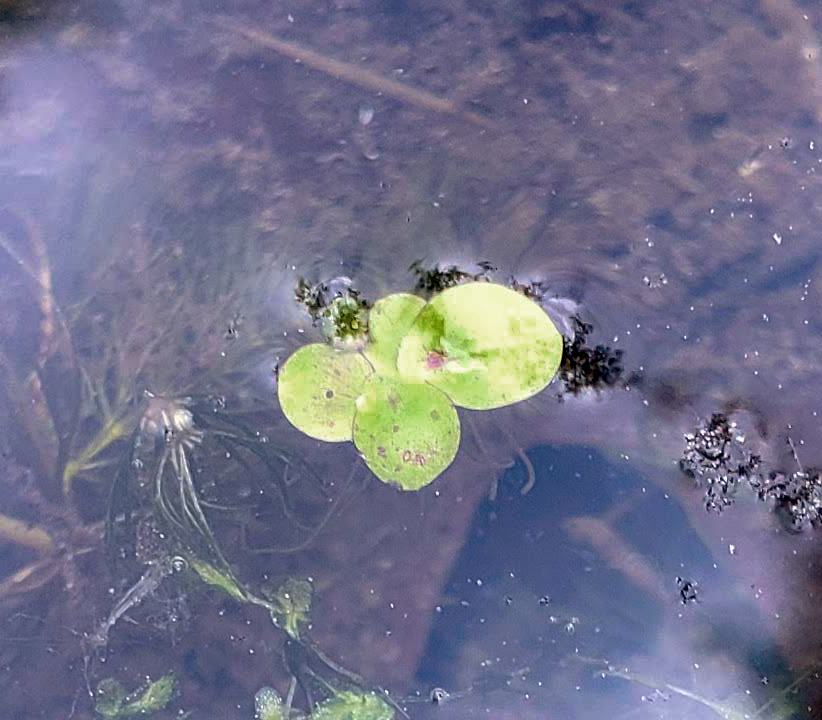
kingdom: Plantae
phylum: Tracheophyta
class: Liliopsida
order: Alismatales
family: Araceae
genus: Spirodela
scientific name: Spirodela polyrhiza
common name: Great duckweed
